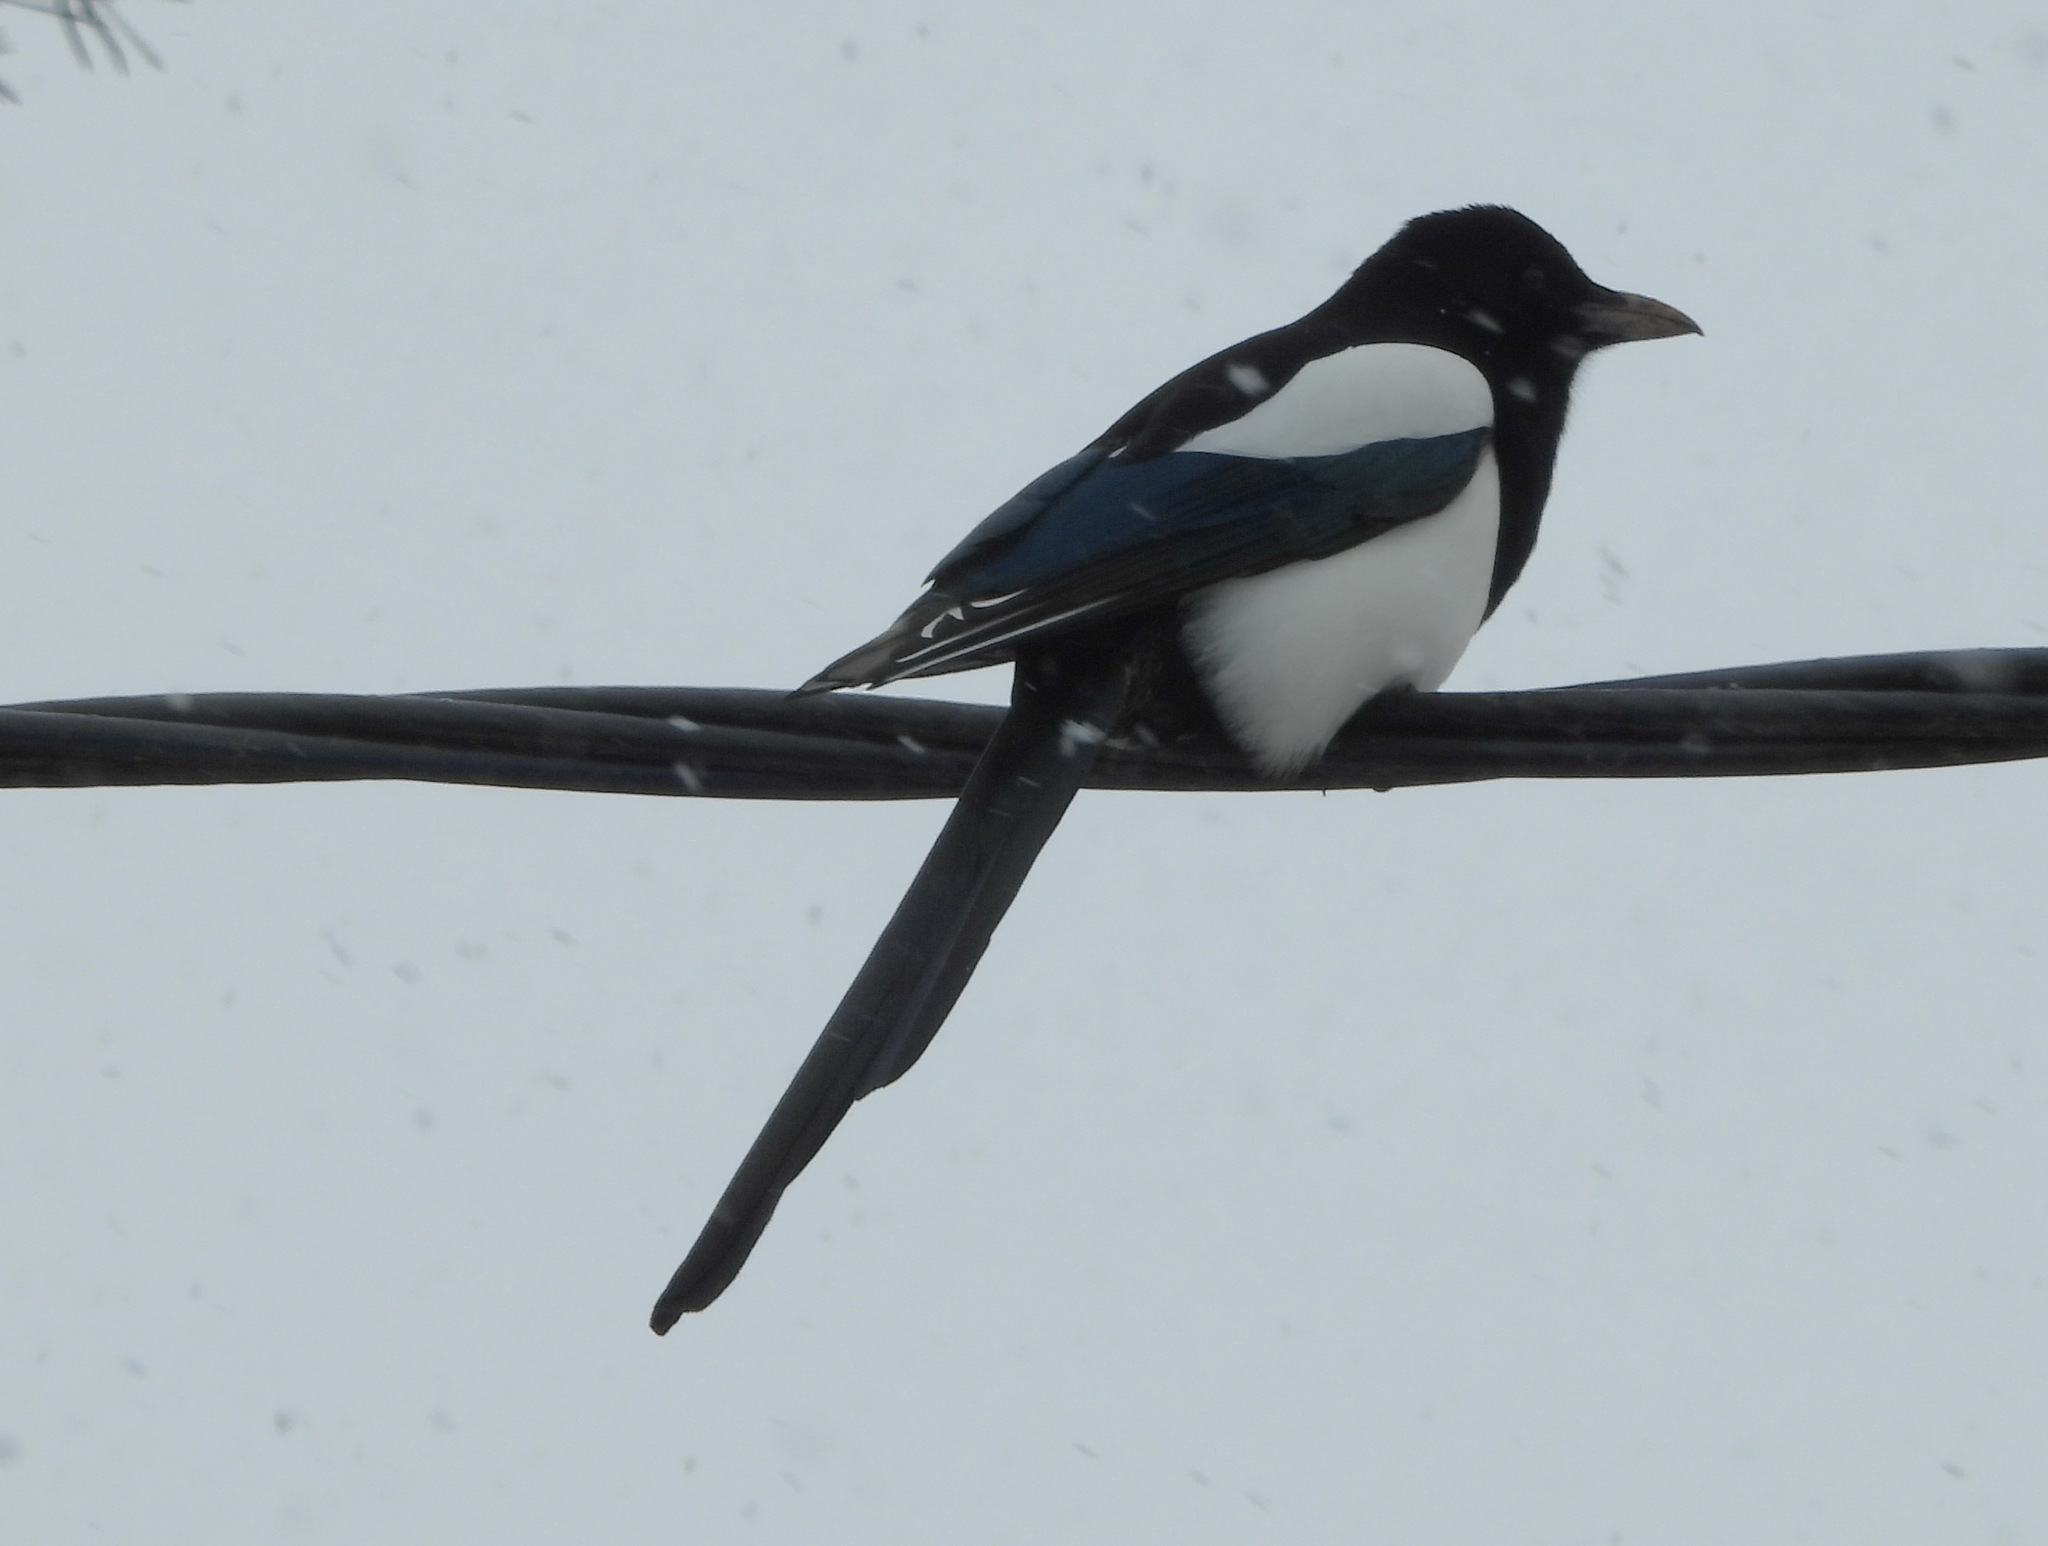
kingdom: Animalia
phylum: Chordata
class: Aves
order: Passeriformes
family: Corvidae
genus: Pica
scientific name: Pica pica
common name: Eurasian magpie
